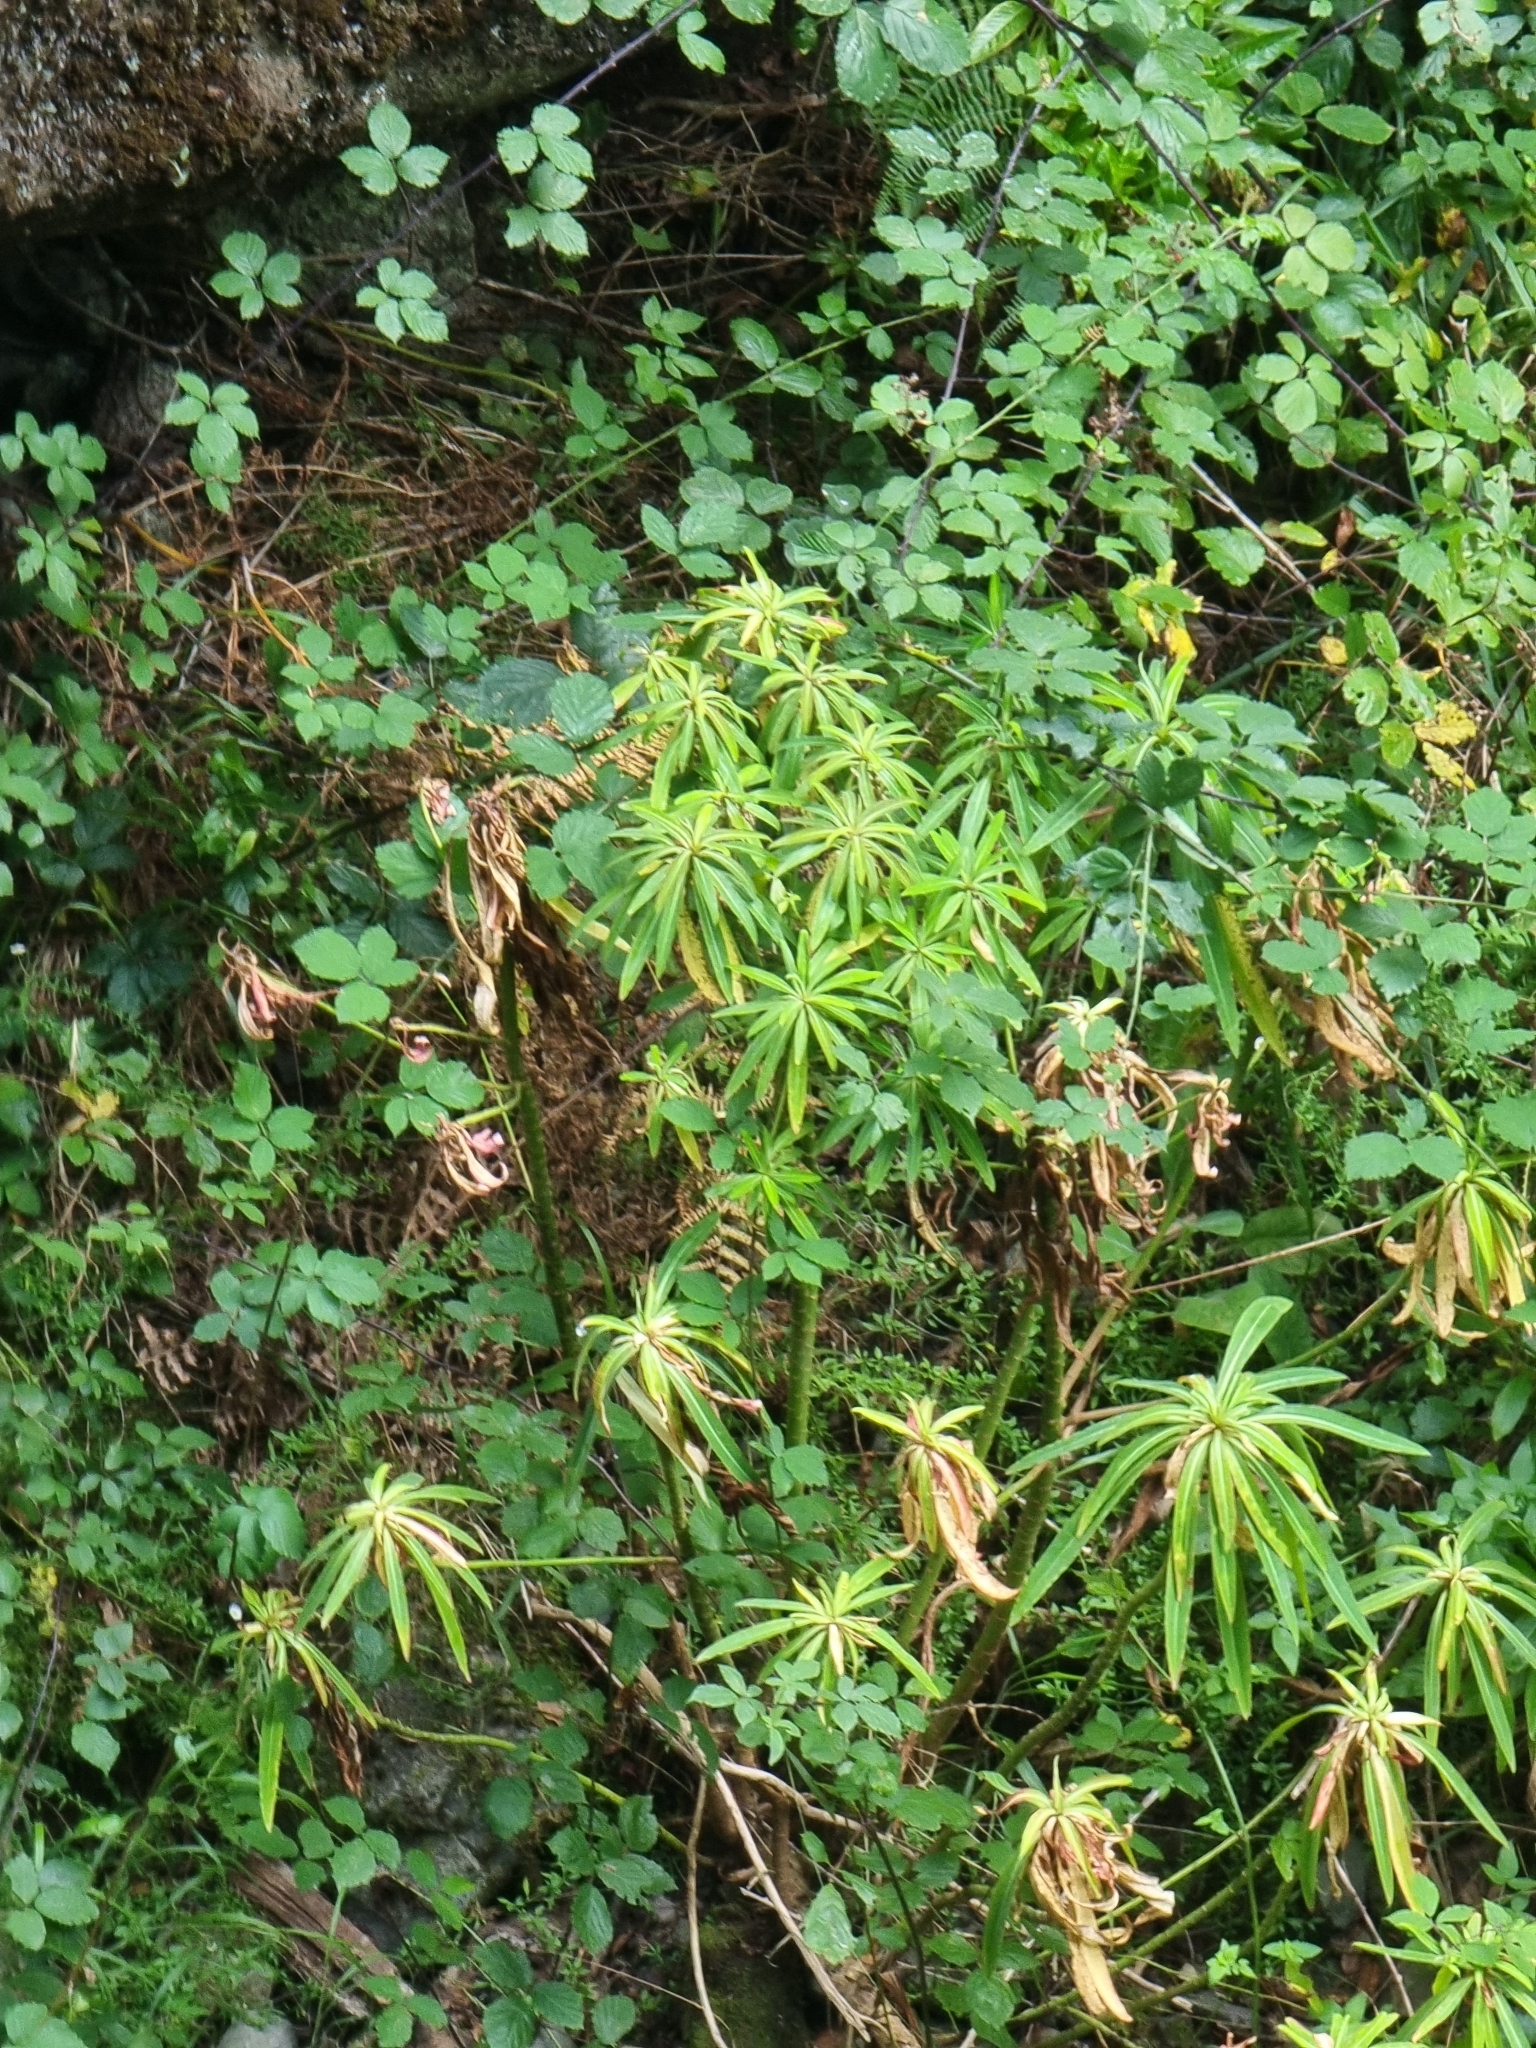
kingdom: Plantae
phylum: Tracheophyta
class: Magnoliopsida
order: Malpighiales
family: Euphorbiaceae
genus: Euphorbia
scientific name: Euphorbia mellifera
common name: Canary spurge
